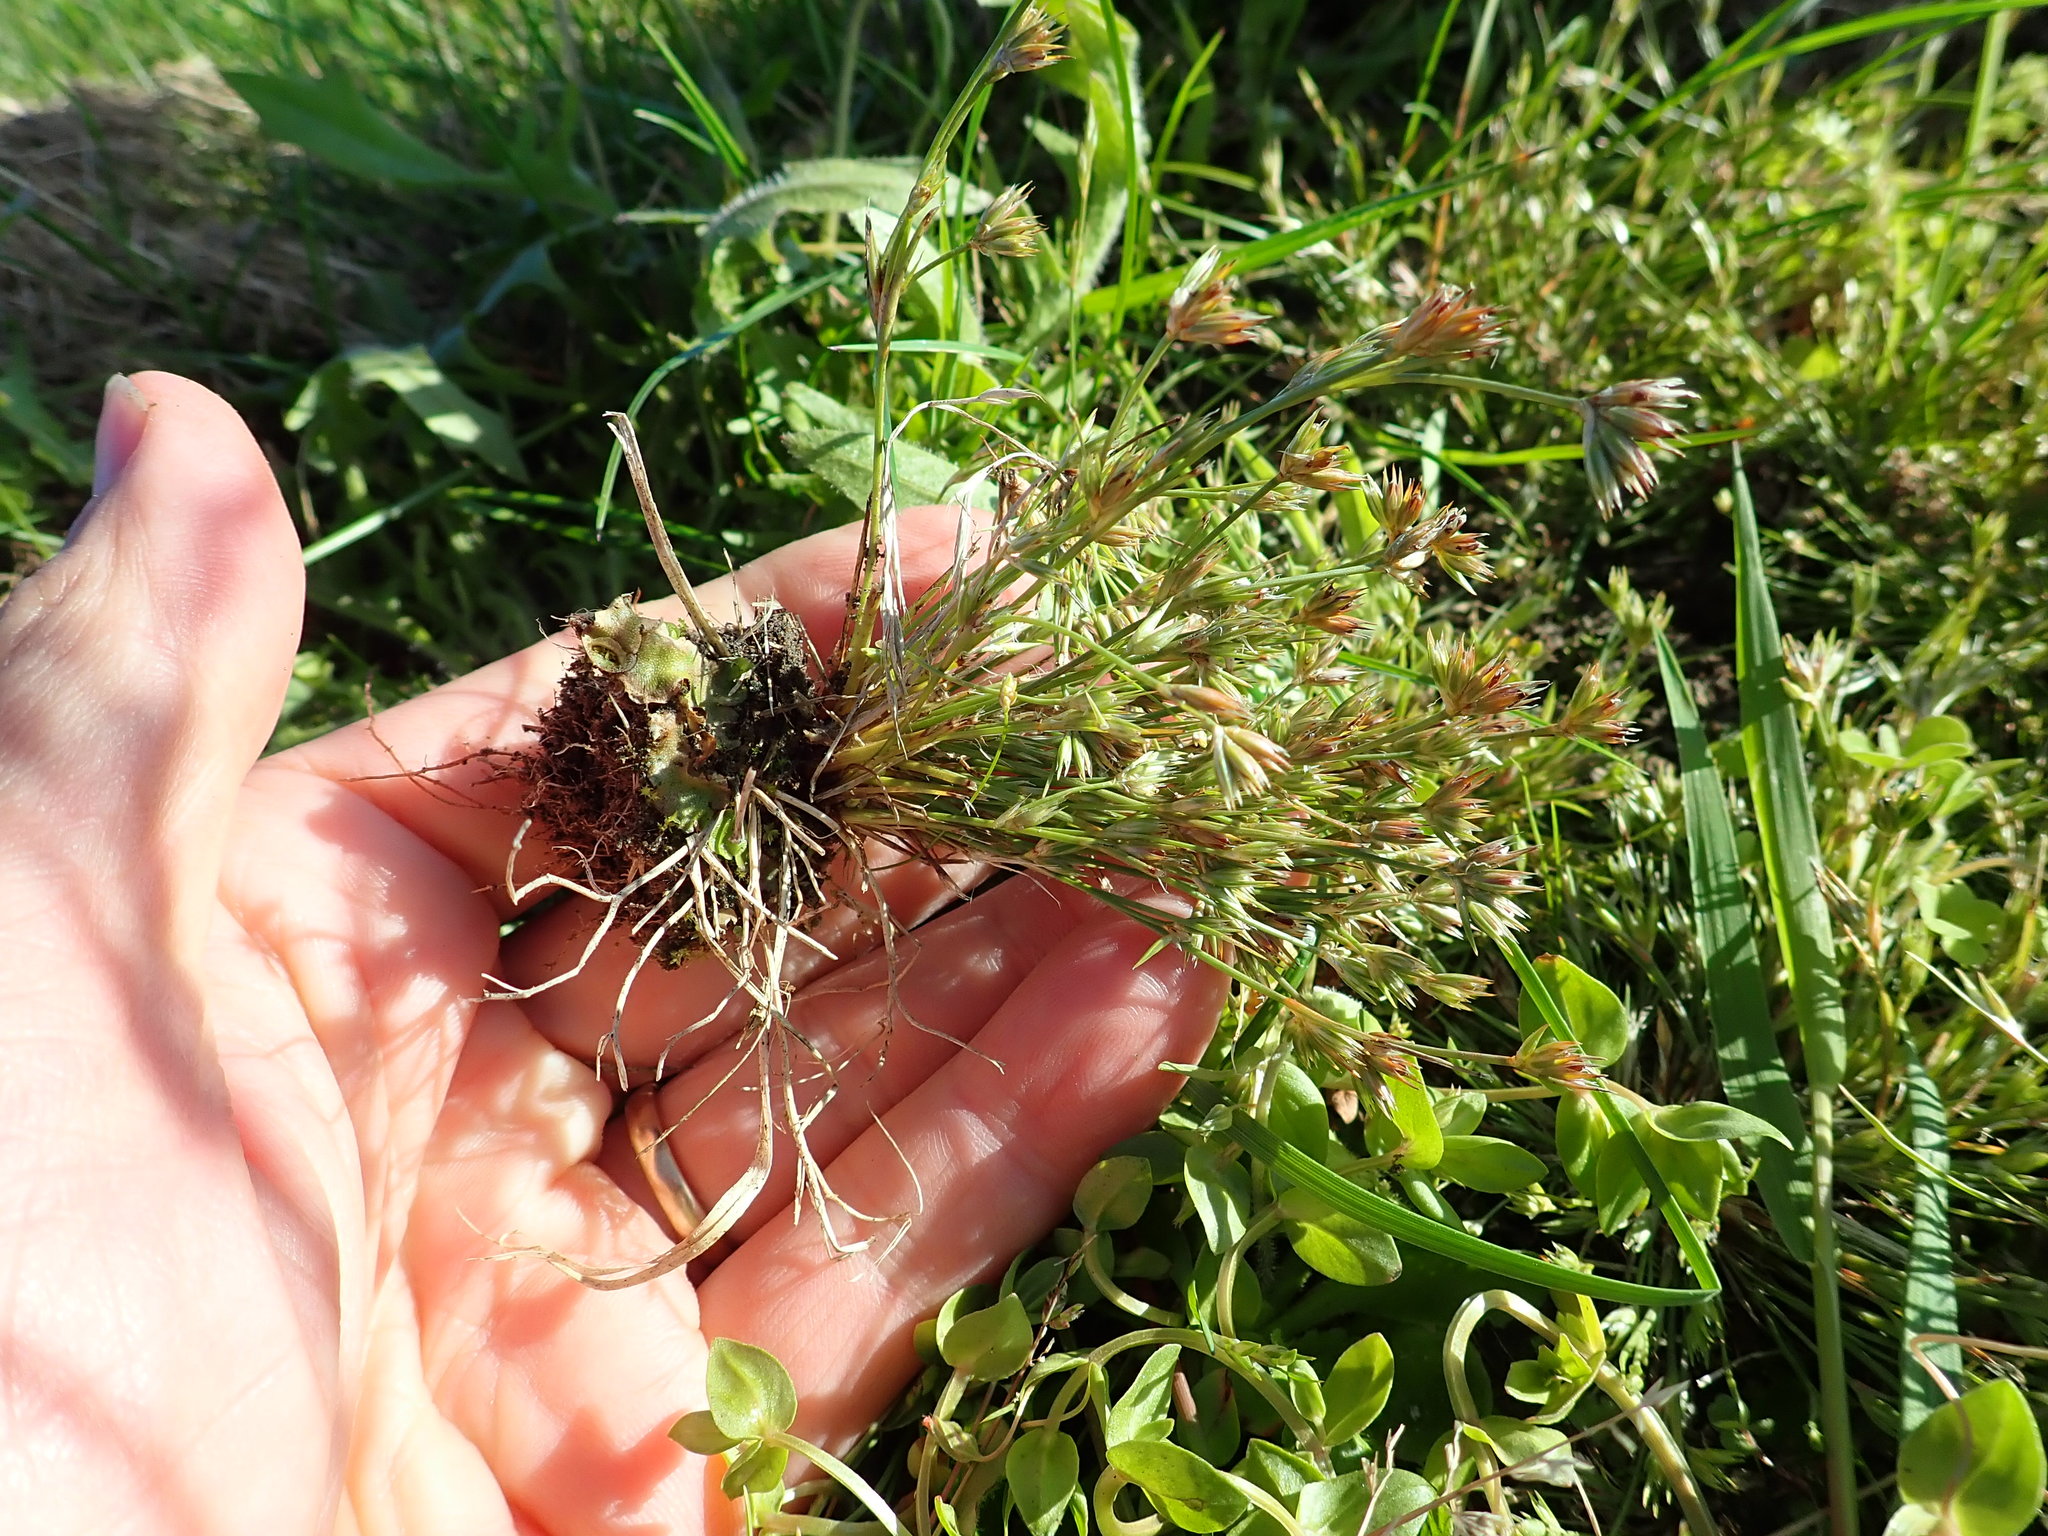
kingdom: Plantae
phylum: Tracheophyta
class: Liliopsida
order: Poales
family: Juncaceae
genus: Juncus
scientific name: Juncus bufonius
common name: Toad rush
